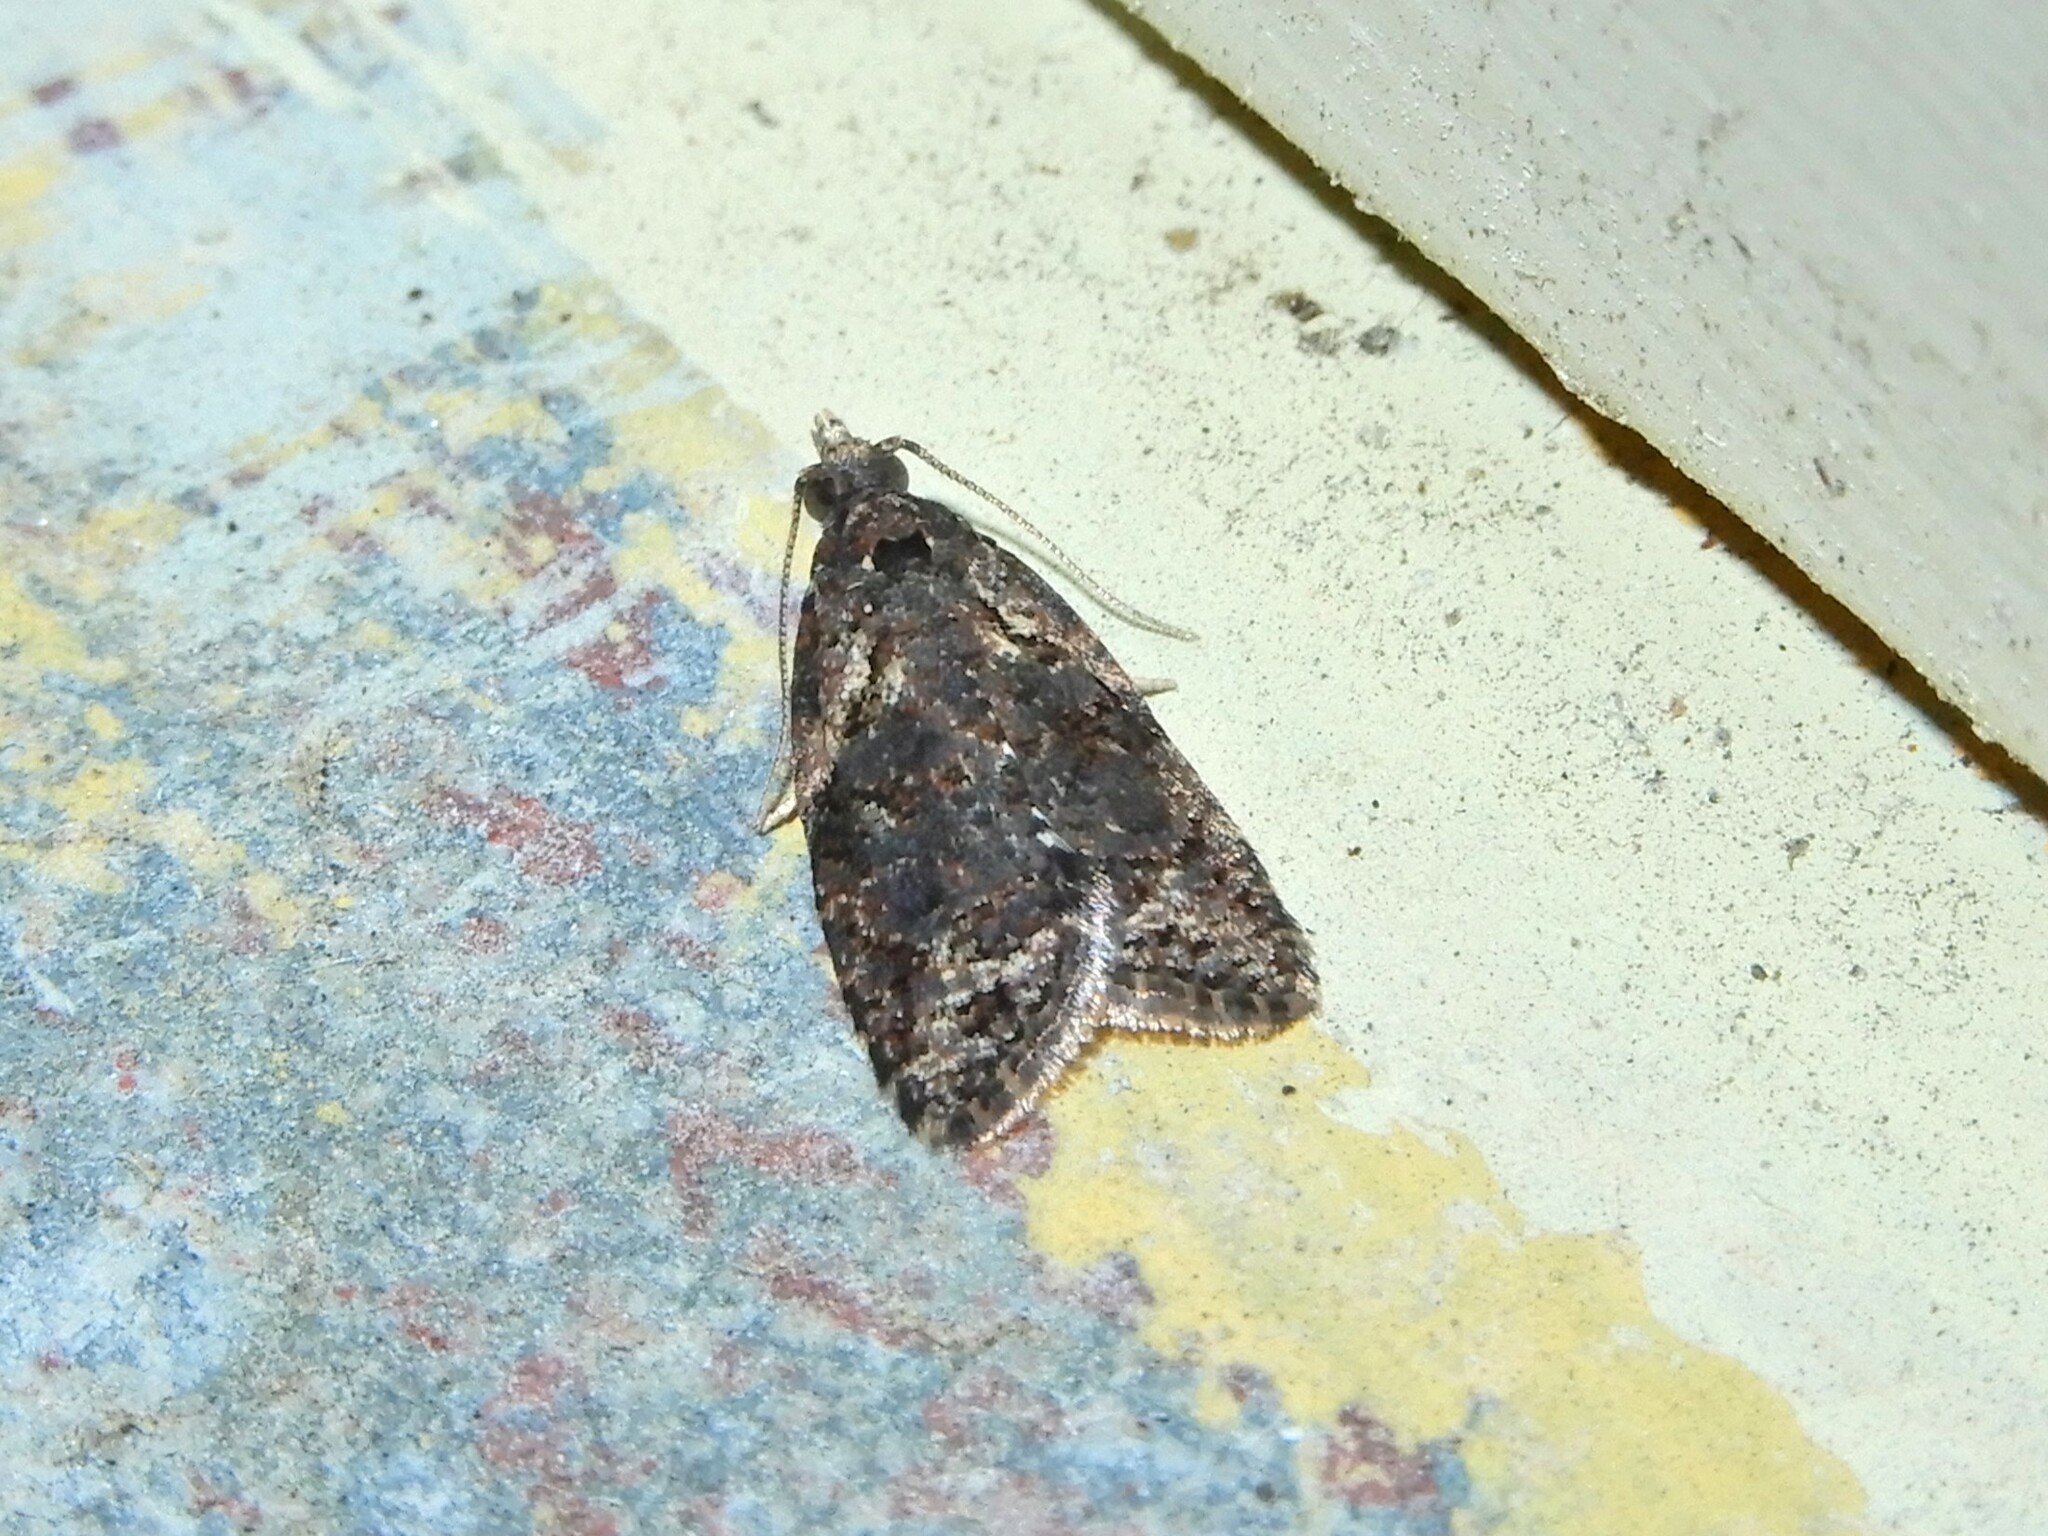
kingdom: Animalia
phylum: Arthropoda
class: Insecta
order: Lepidoptera
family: Tortricidae
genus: Capua
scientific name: Capua intractana
